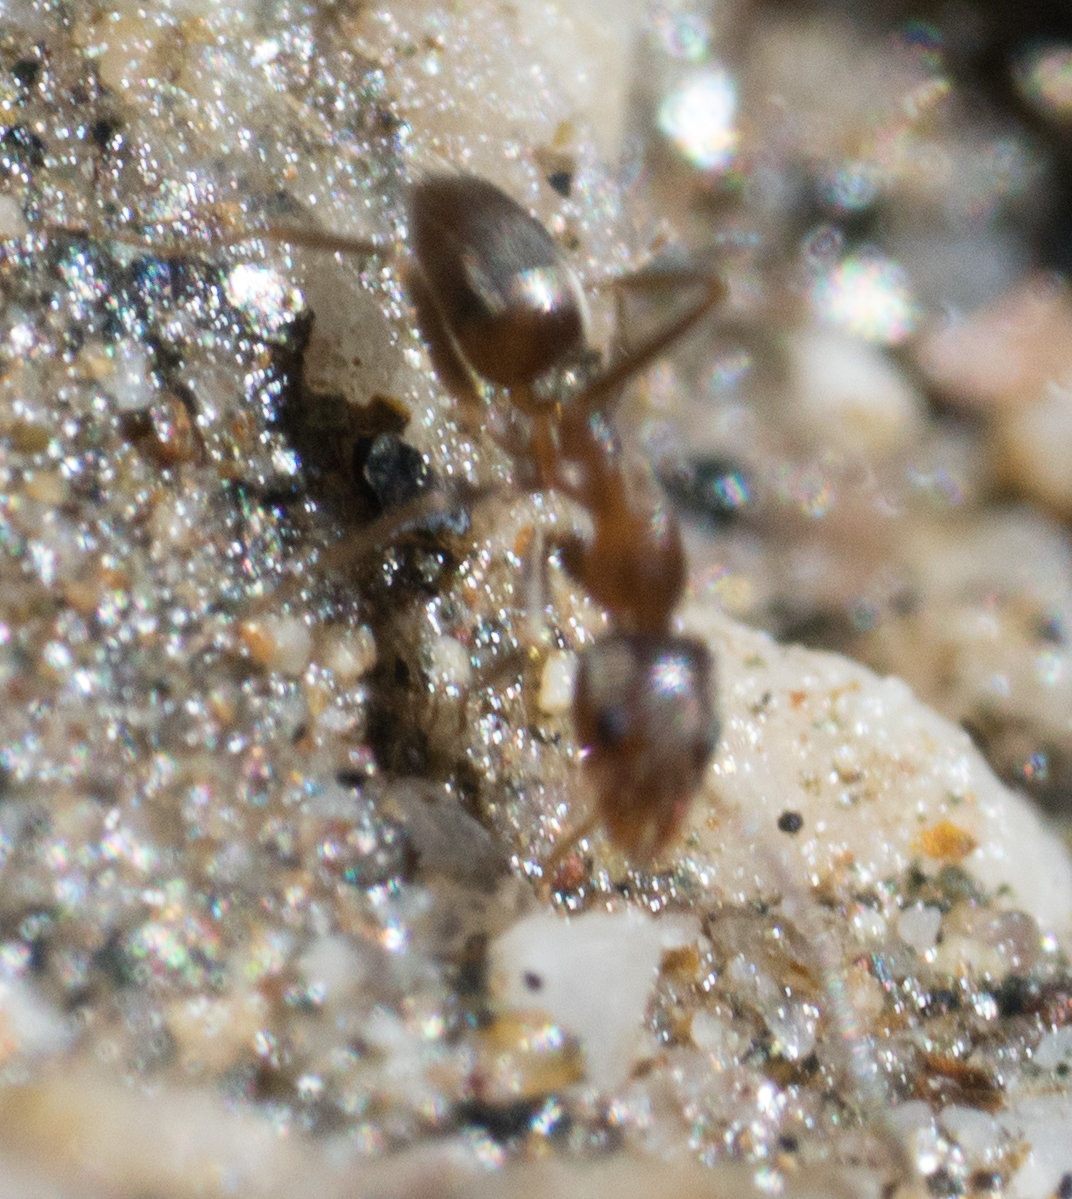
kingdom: Animalia
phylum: Arthropoda
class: Insecta
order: Hymenoptera
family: Formicidae
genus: Linepithema
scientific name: Linepithema humile
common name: Argentine ant
